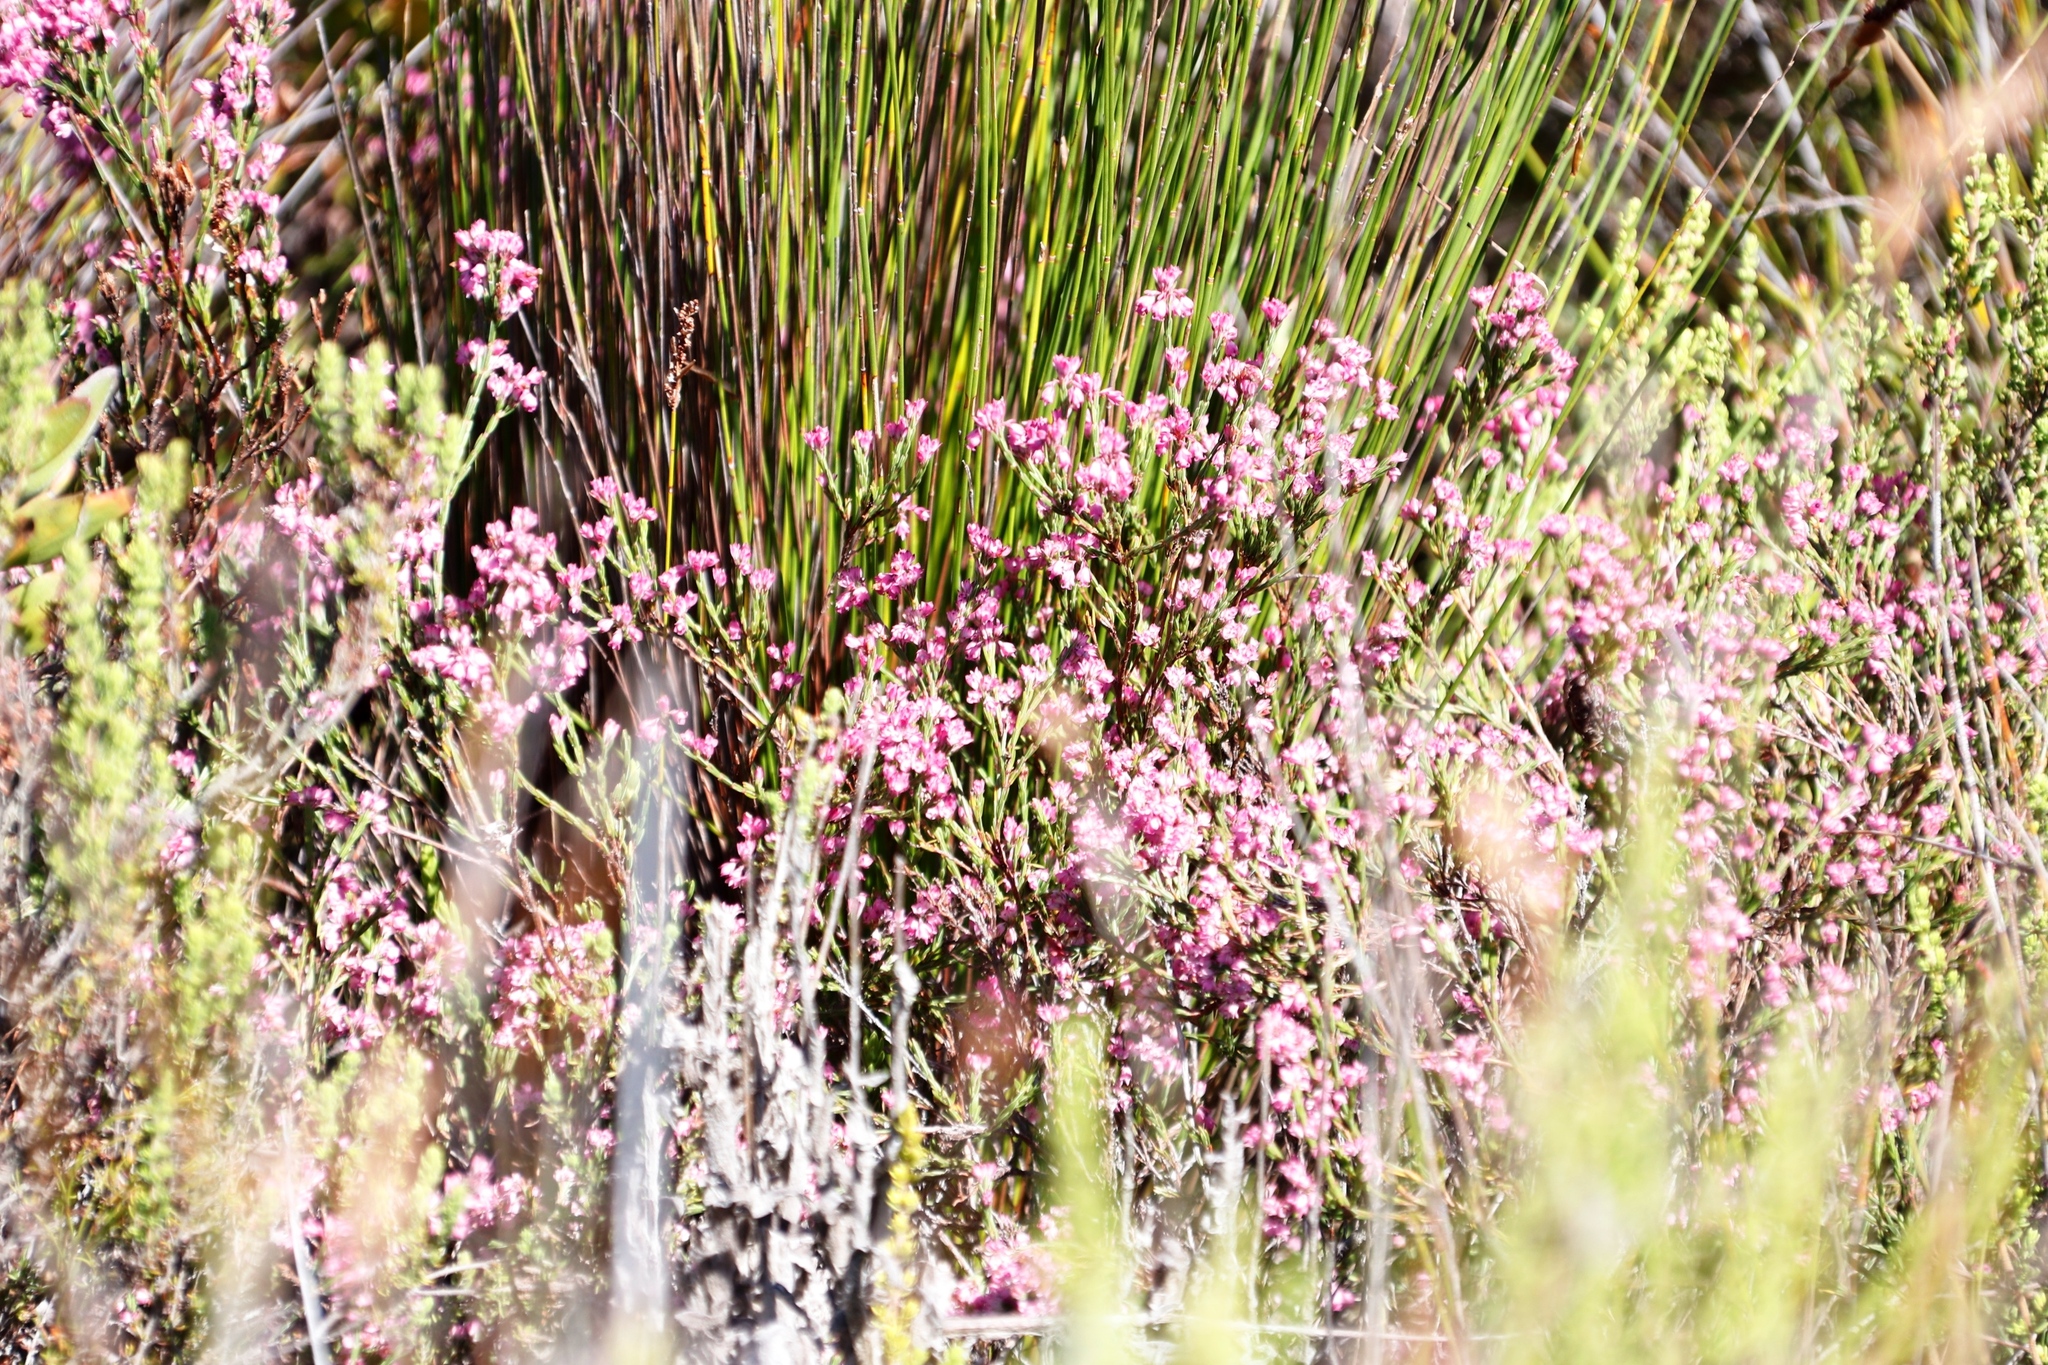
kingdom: Plantae
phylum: Tracheophyta
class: Magnoliopsida
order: Ericales
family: Ericaceae
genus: Erica
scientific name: Erica corifolia
